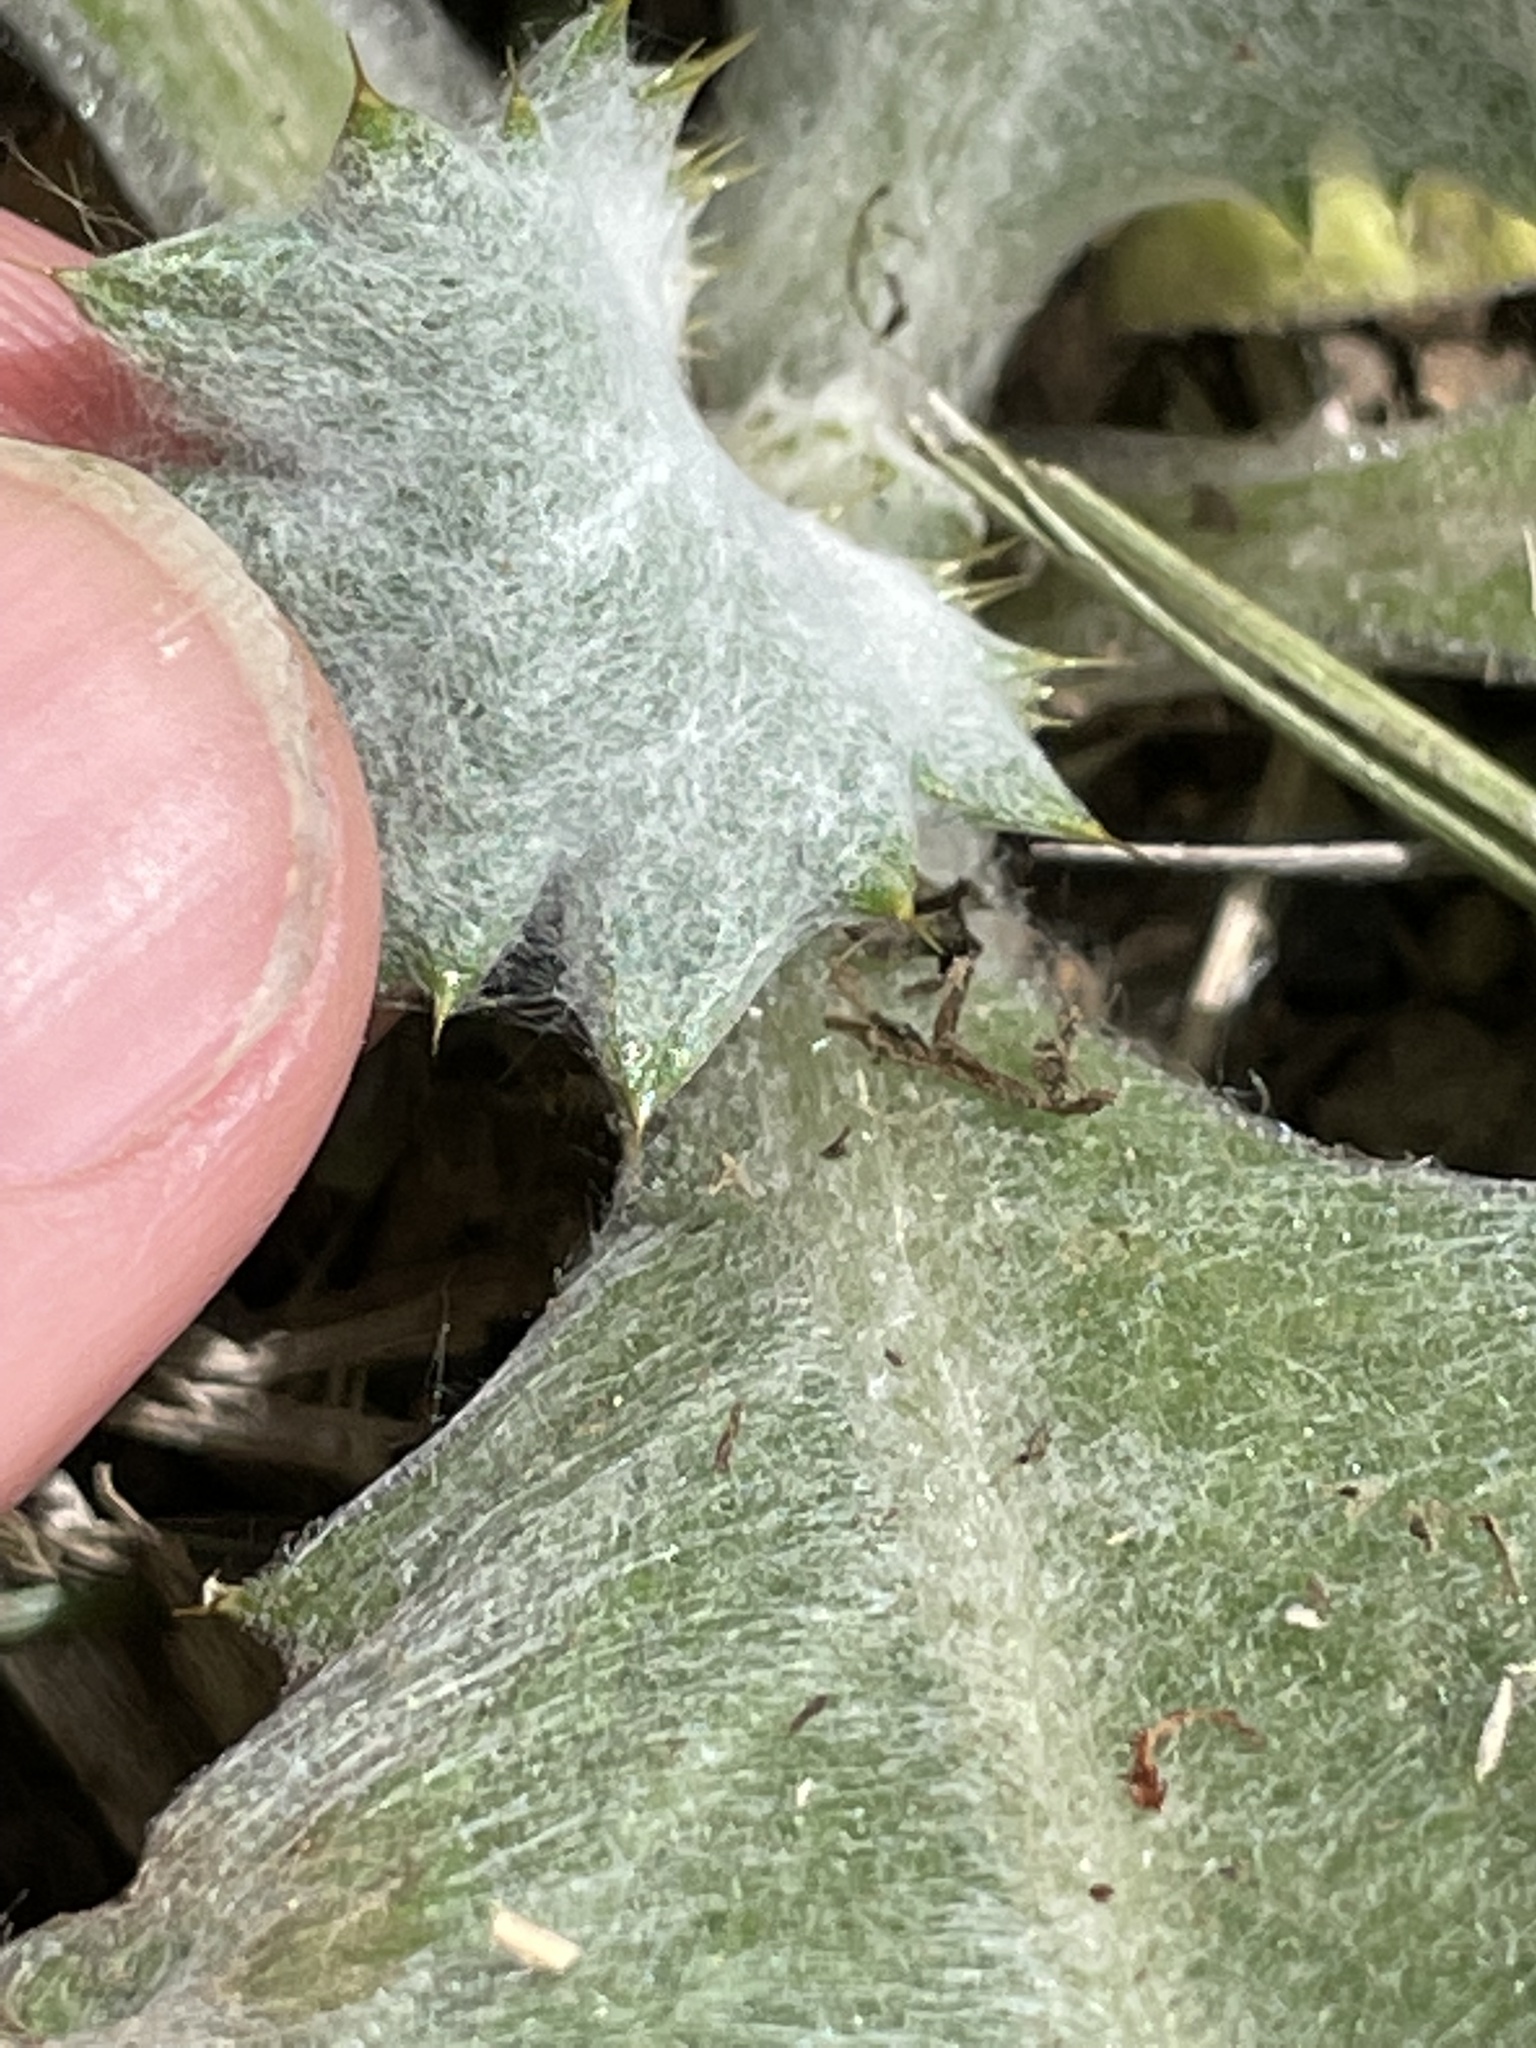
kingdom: Plantae
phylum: Tracheophyta
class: Magnoliopsida
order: Asterales
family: Asteraceae
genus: Onopordum
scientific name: Onopordum acanthium
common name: Scotch thistle
